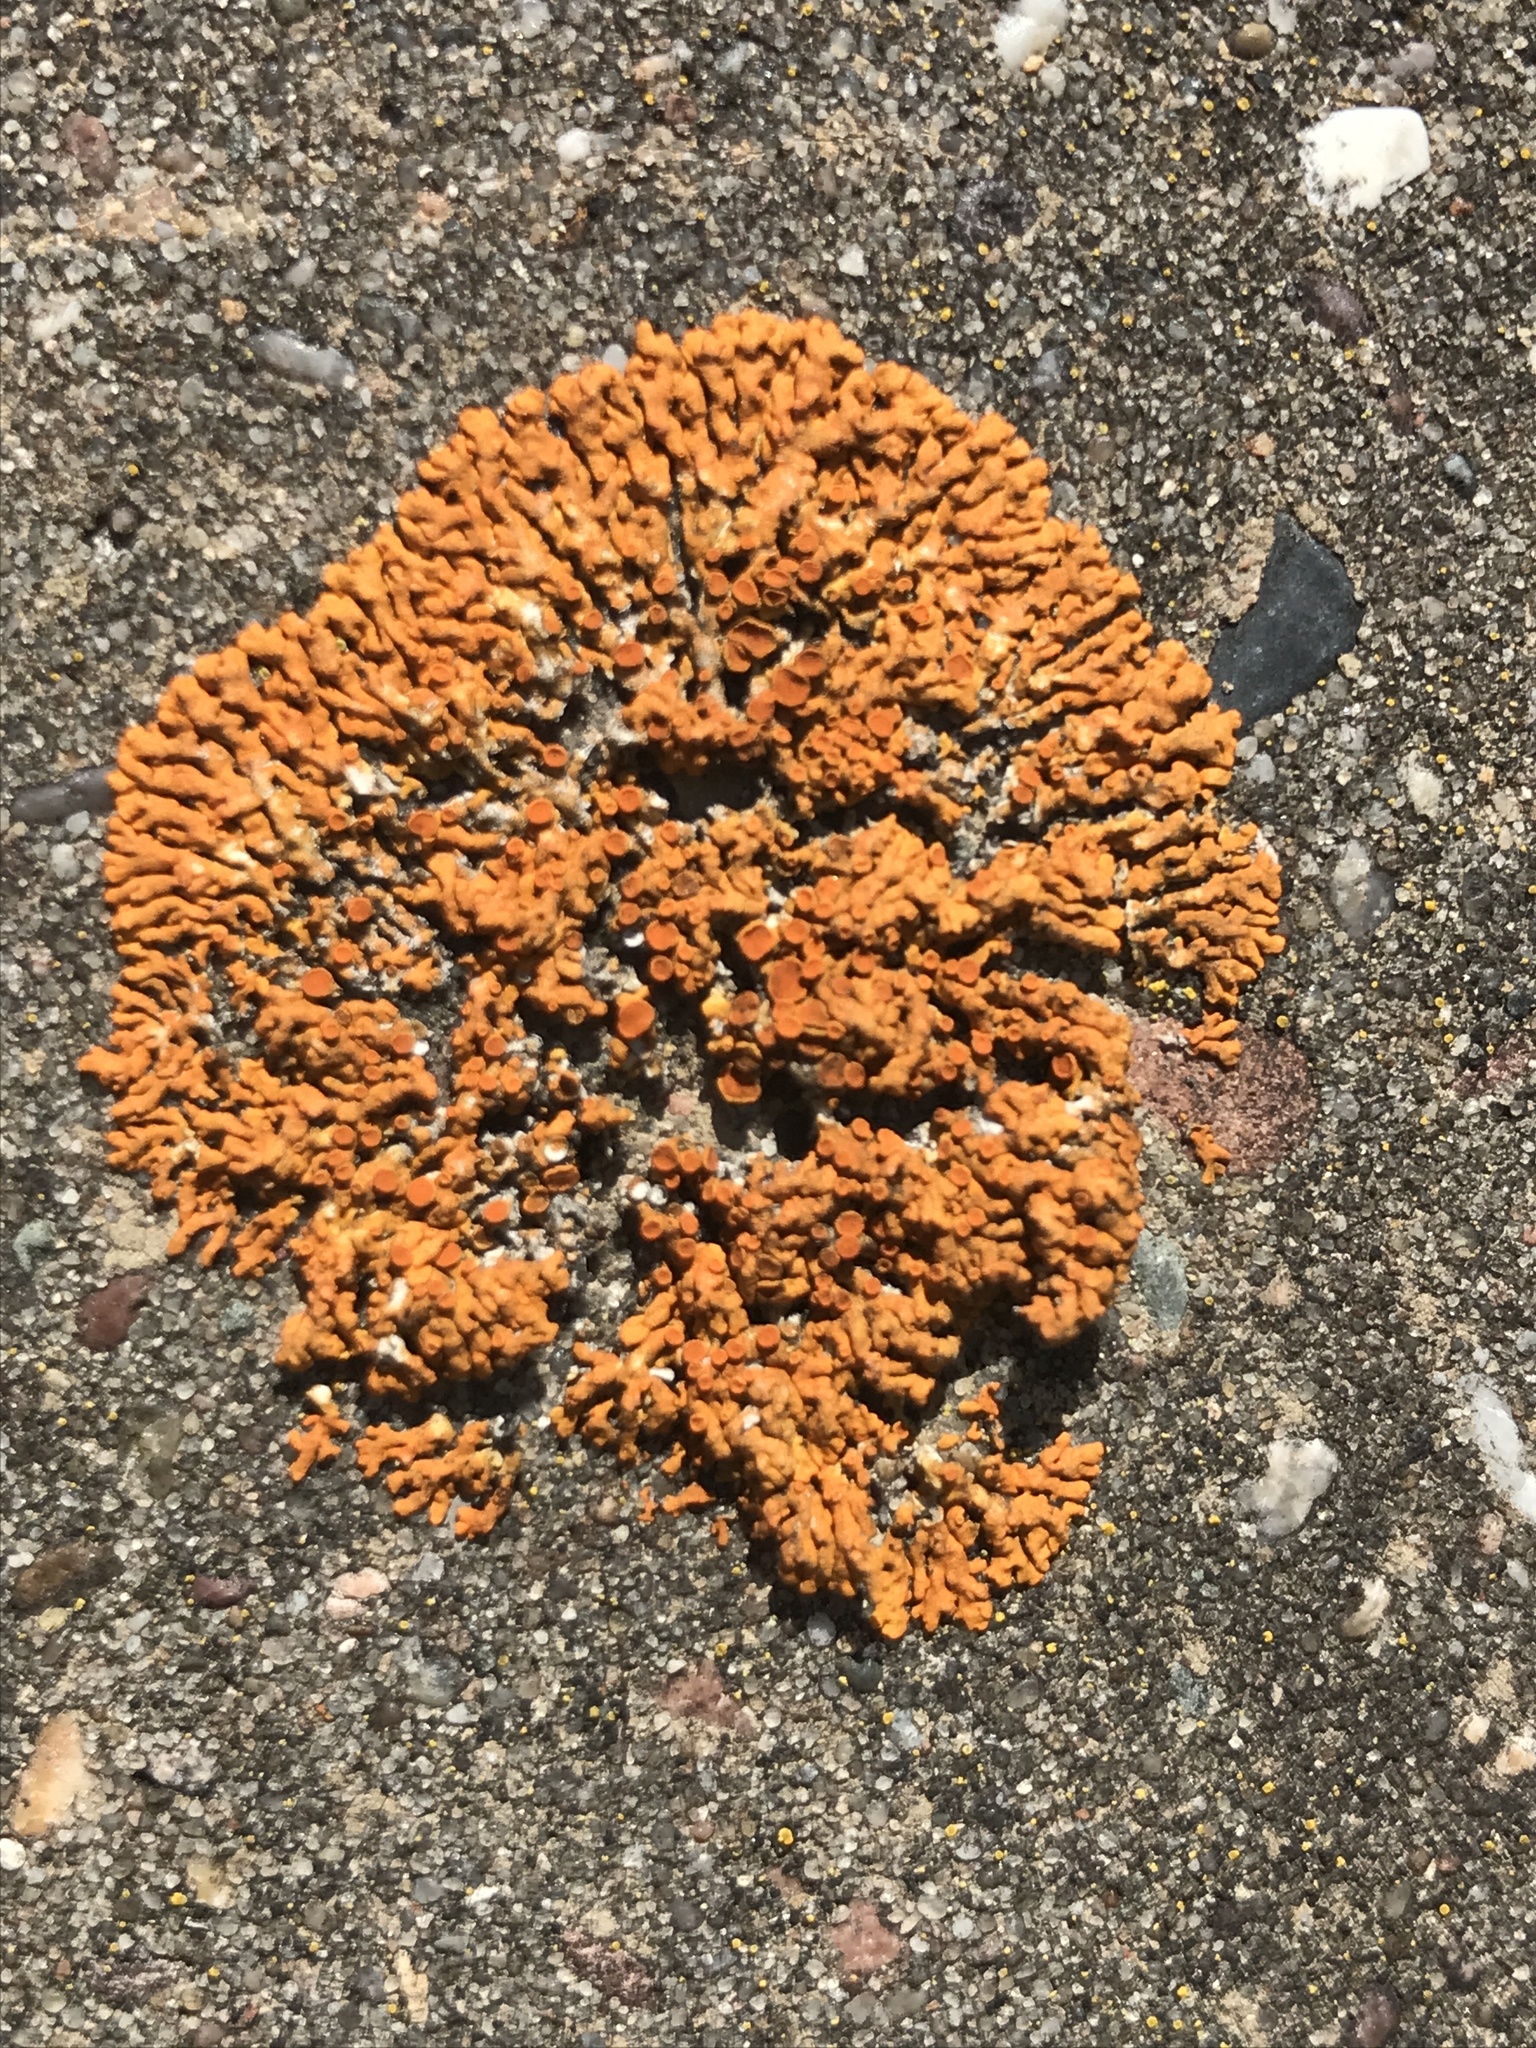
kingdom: Fungi
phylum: Ascomycota
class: Lecanoromycetes
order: Teloschistales
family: Teloschistaceae
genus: Xanthoria
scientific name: Xanthoria elegans
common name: Elegant sunburst lichen
